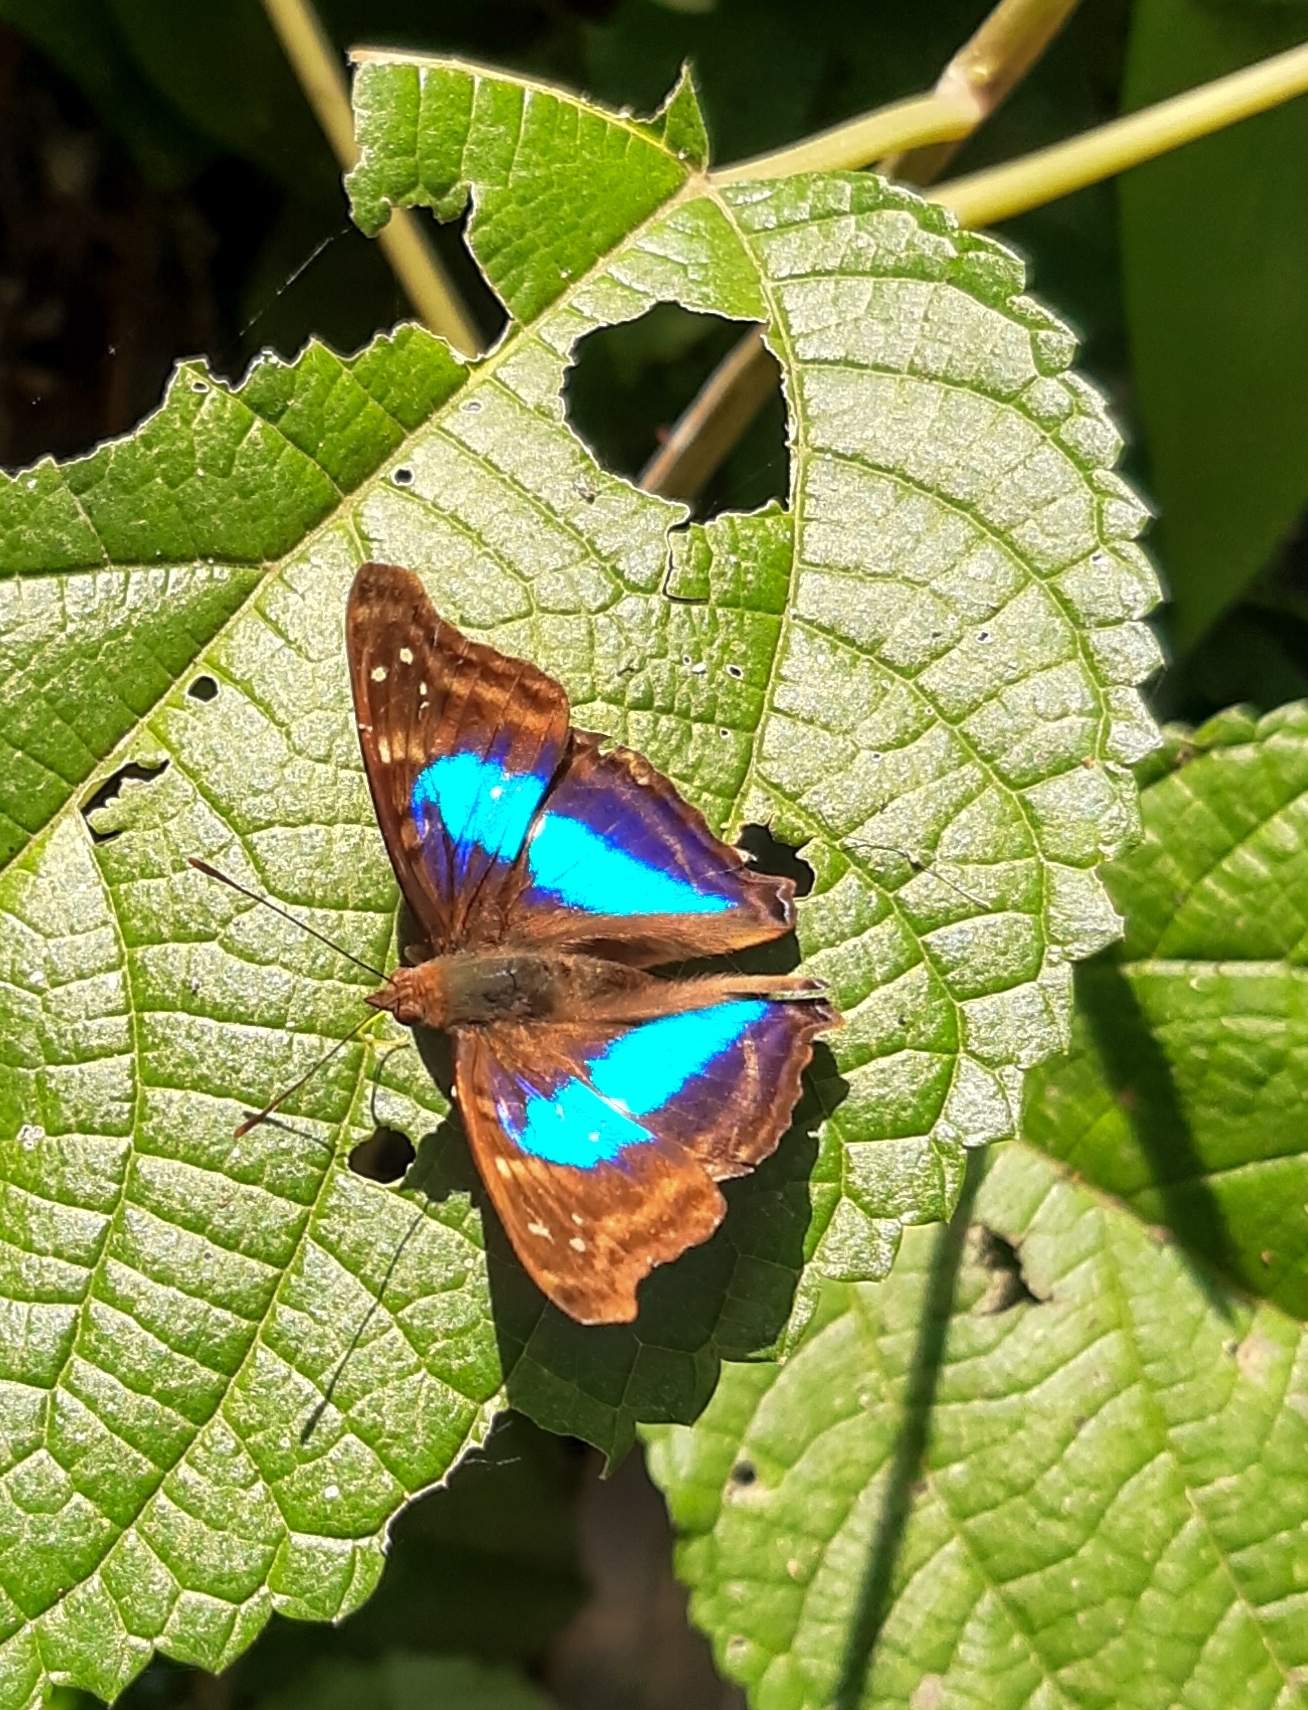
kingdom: Animalia
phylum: Arthropoda
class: Insecta
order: Lepidoptera
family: Nymphalidae
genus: Doxocopa
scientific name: Doxocopa laurentia
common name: Turquoise emperor
